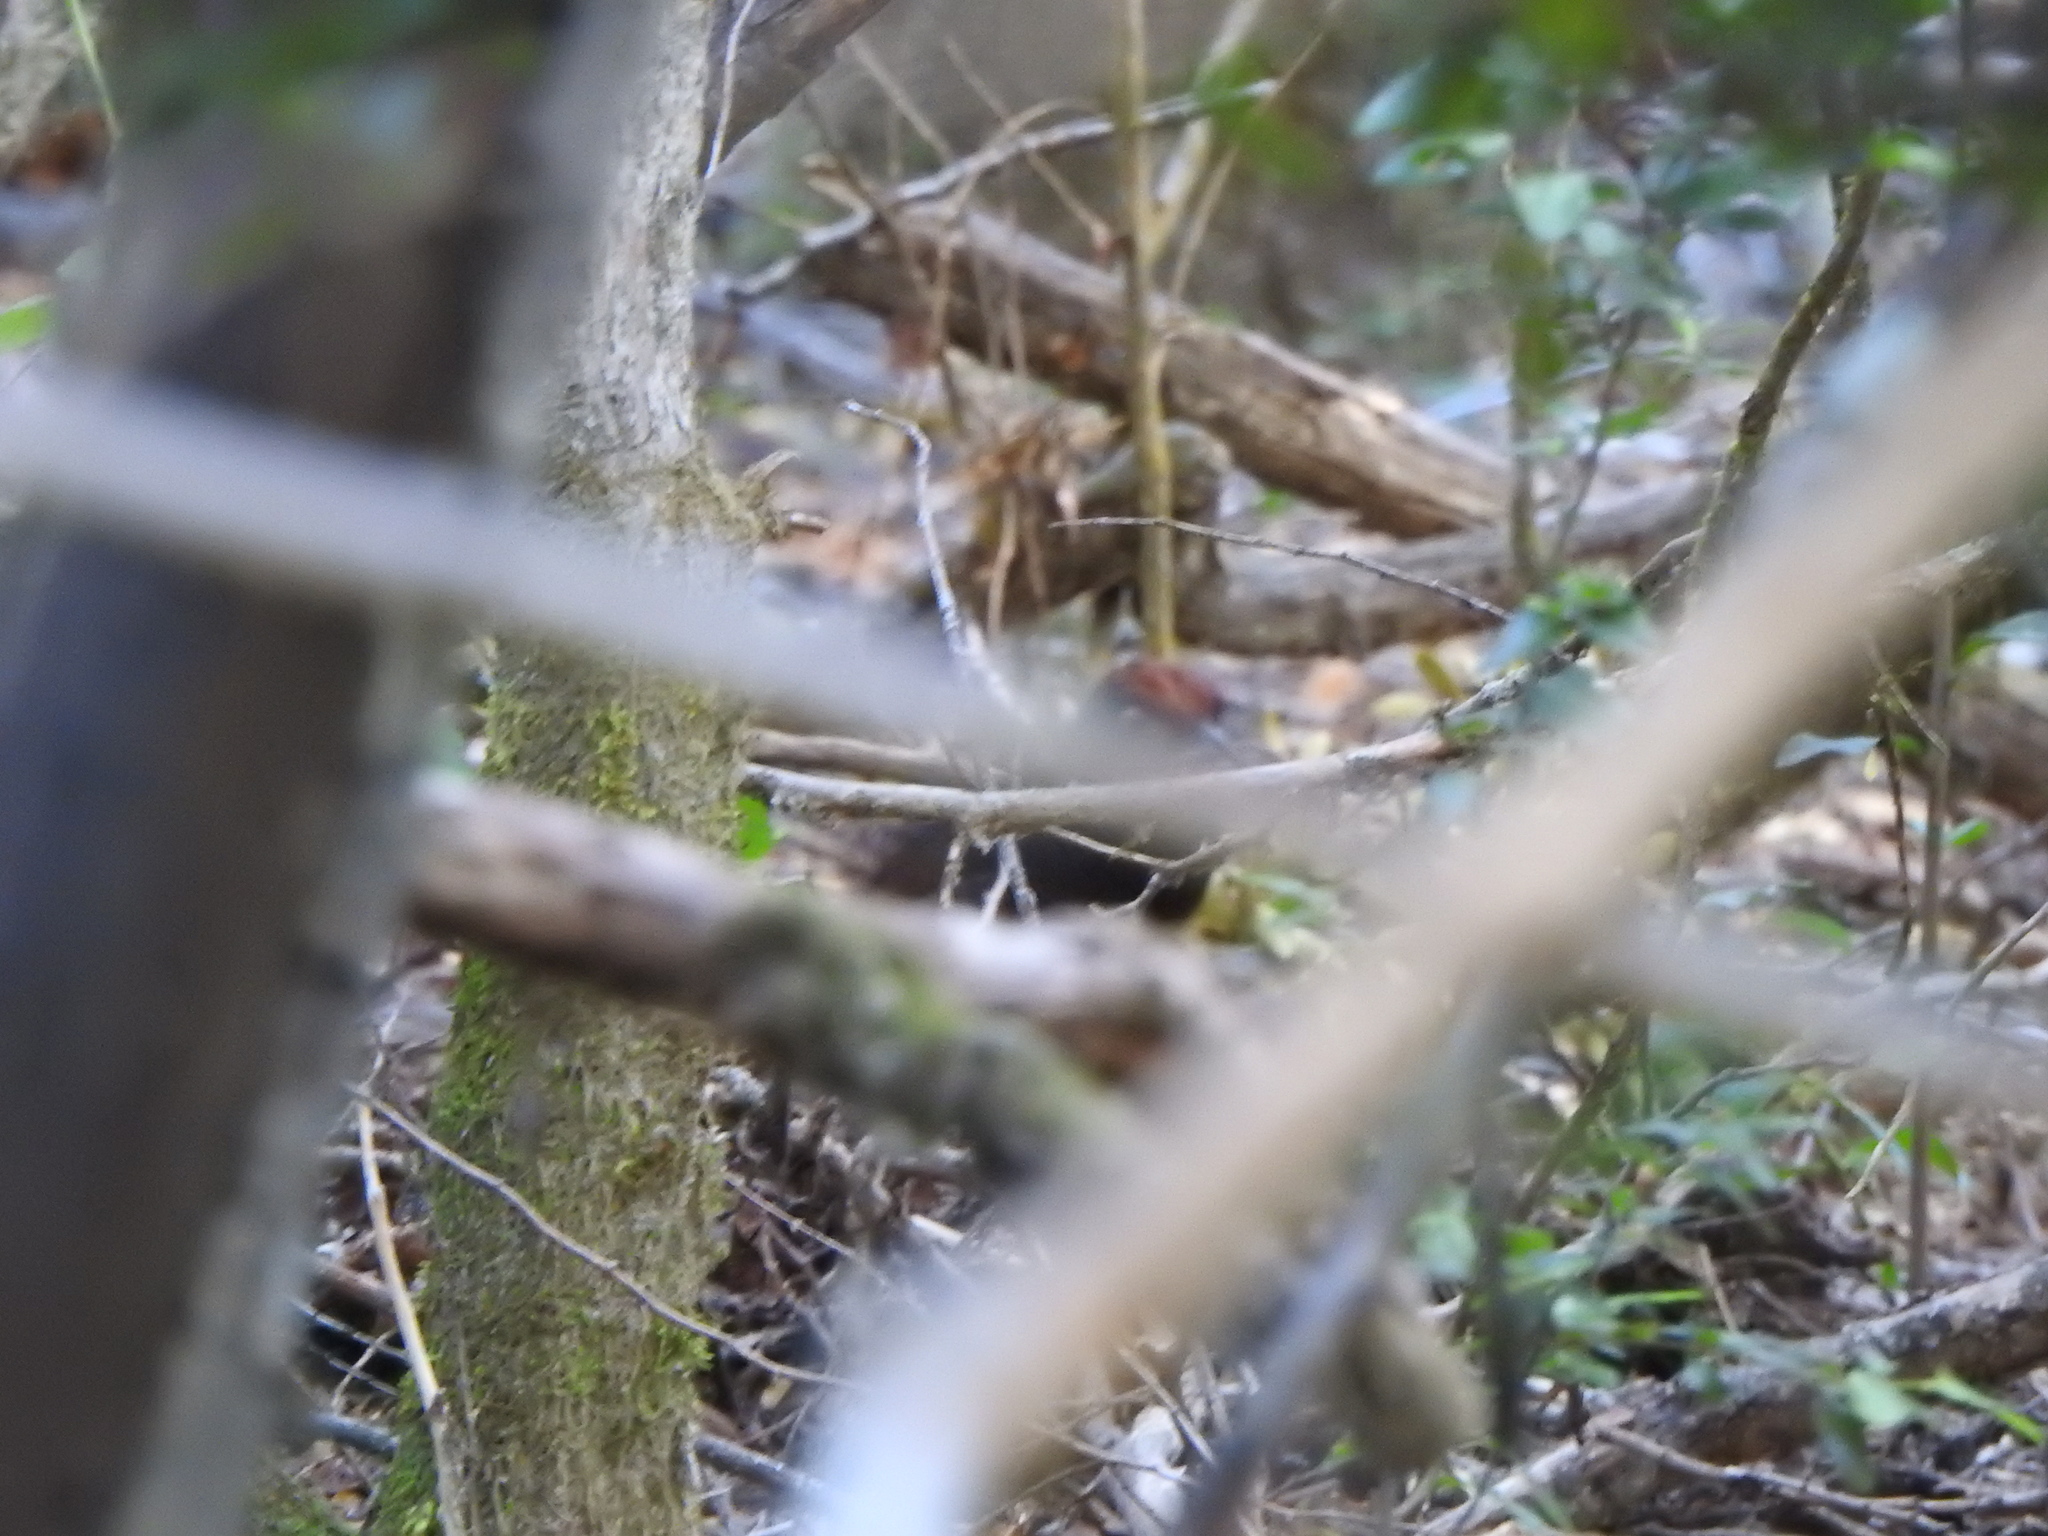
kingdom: Animalia
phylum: Chordata
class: Aves
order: Passeriformes
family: Rhinocryptidae
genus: Pteroptochos
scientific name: Pteroptochos tarnii
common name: Black-throated huet-huet
